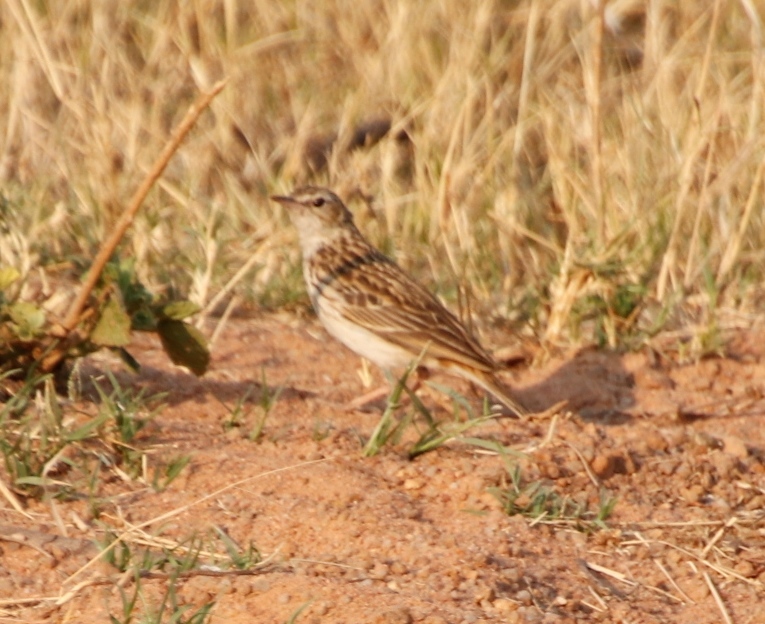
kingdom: Animalia
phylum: Chordata
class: Aves
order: Passeriformes
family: Motacillidae
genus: Anthus
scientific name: Anthus caffer
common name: Bushveld pipit
